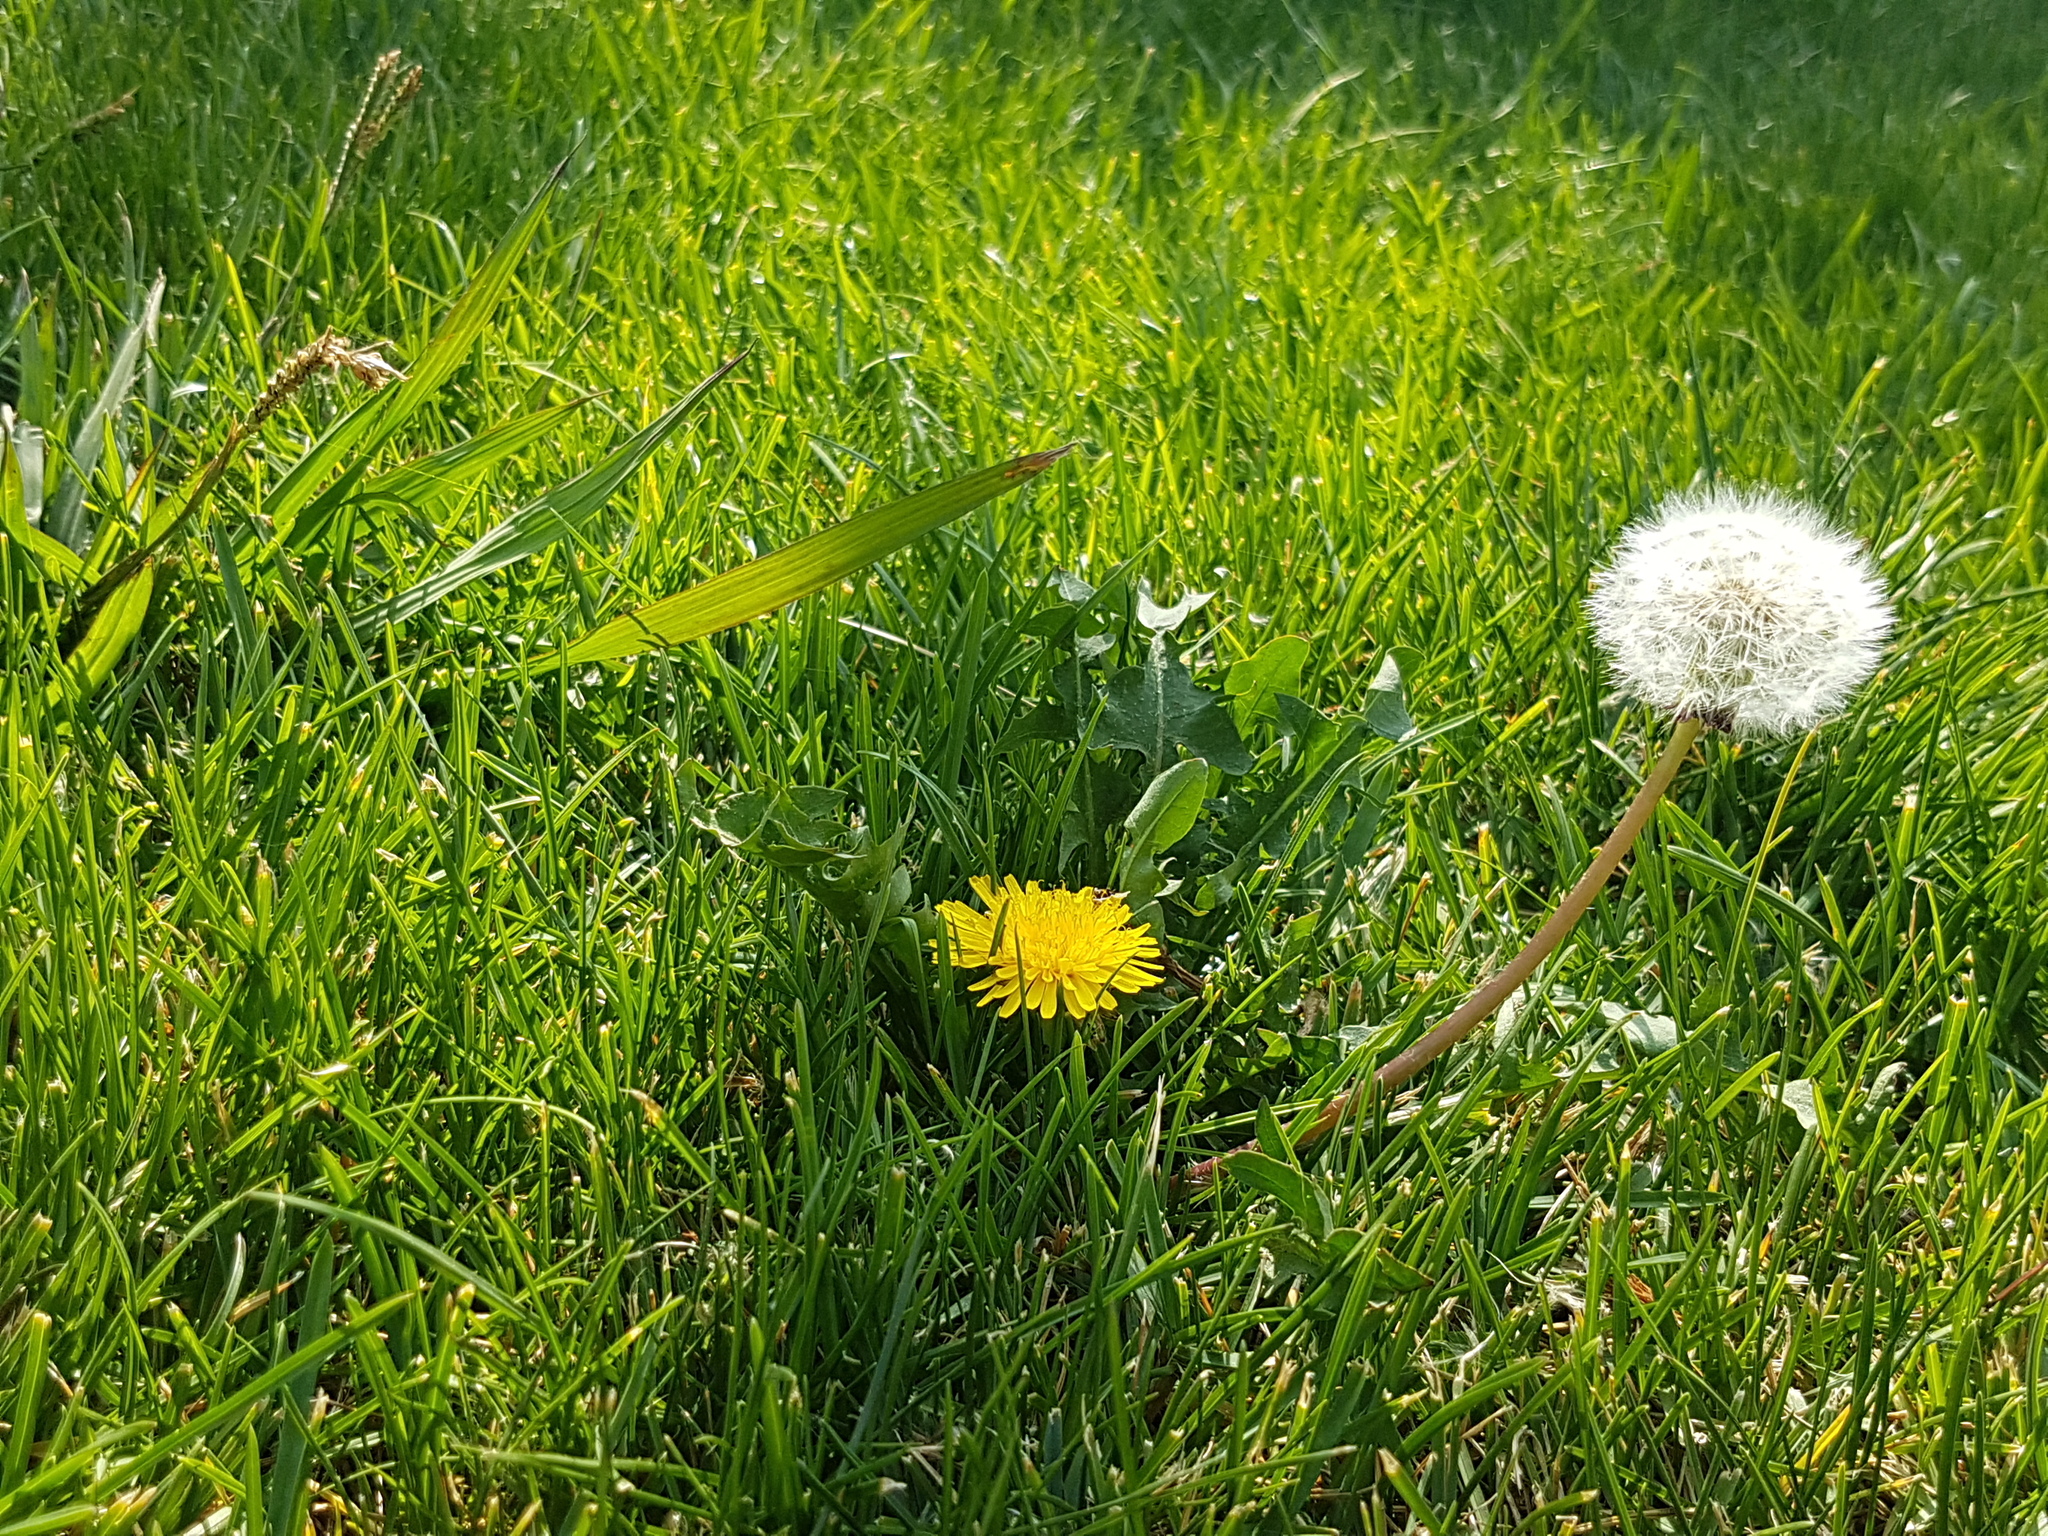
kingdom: Plantae
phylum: Tracheophyta
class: Magnoliopsida
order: Asterales
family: Asteraceae
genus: Taraxacum
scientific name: Taraxacum officinale
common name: Common dandelion
